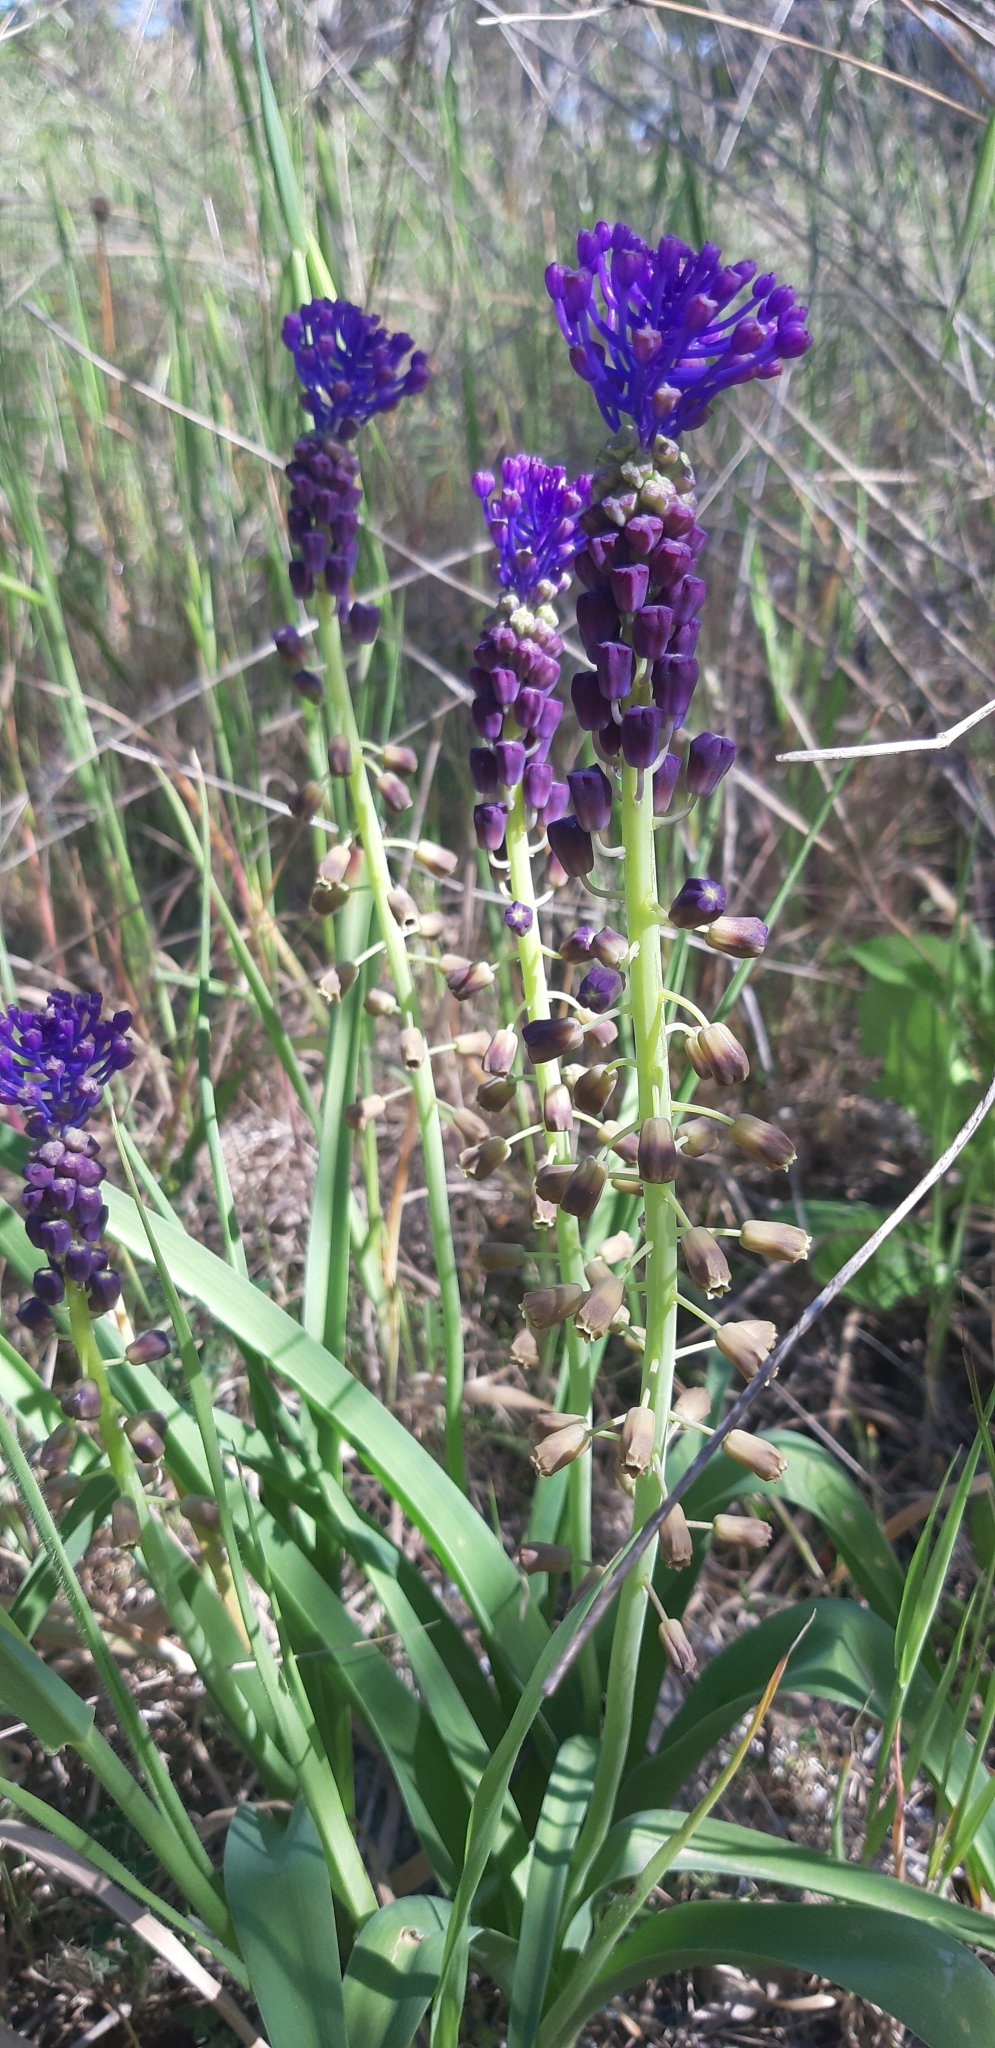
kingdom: Plantae
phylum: Tracheophyta
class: Liliopsida
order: Asparagales
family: Asparagaceae
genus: Muscari
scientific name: Muscari comosum
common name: Tassel hyacinth
